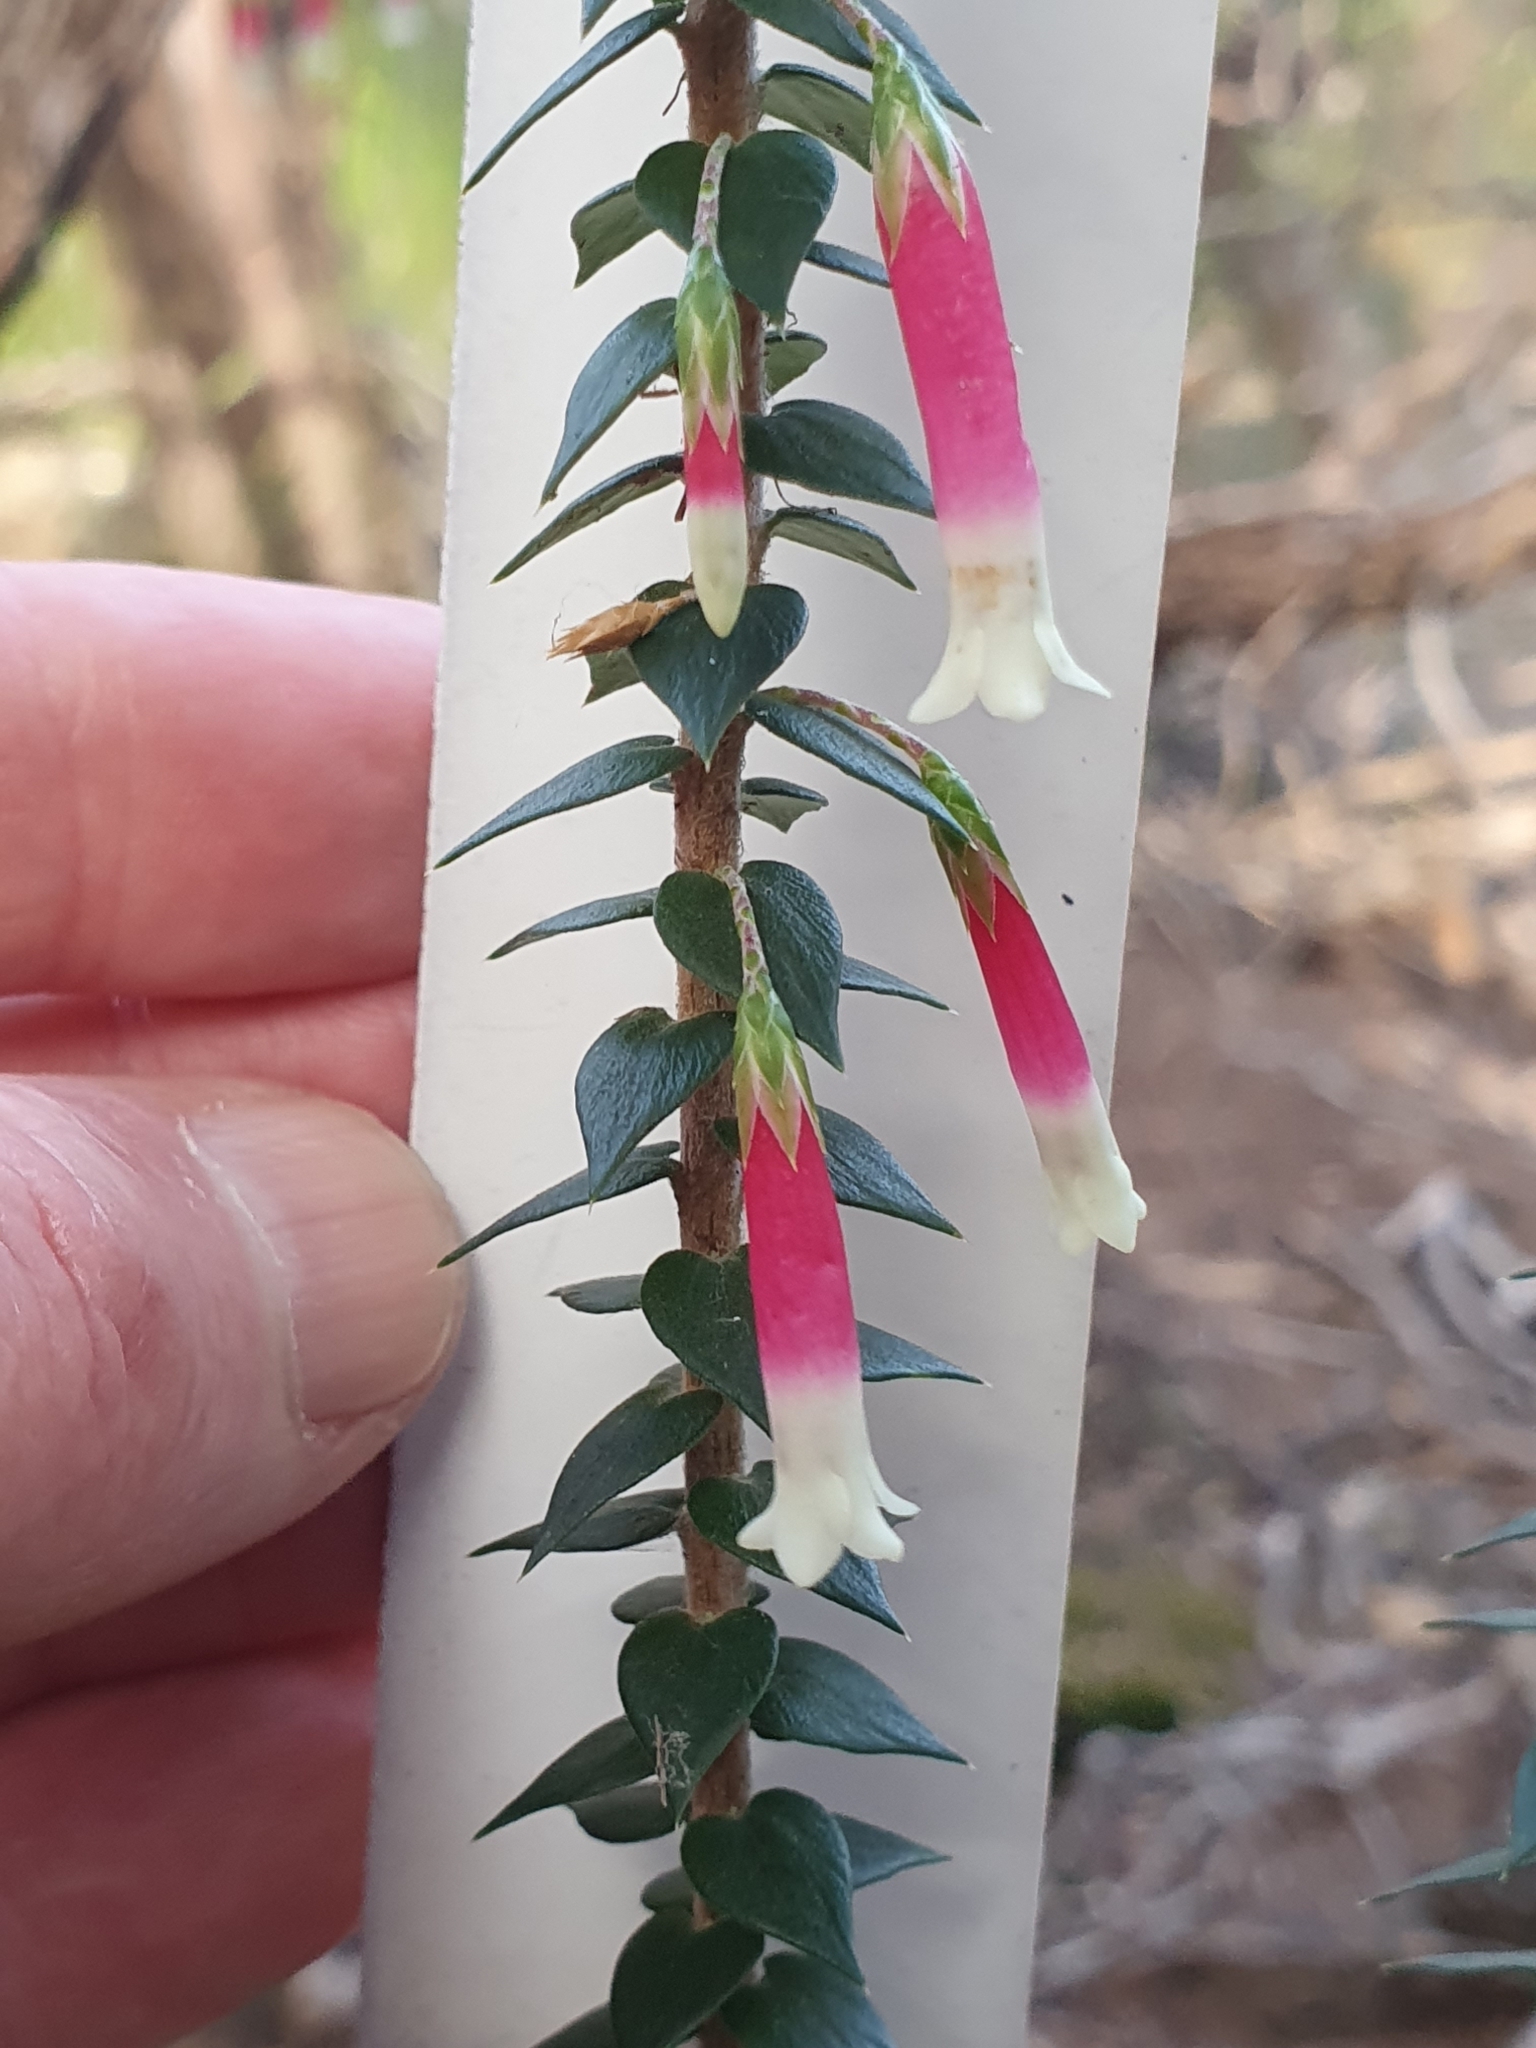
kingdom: Plantae
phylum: Tracheophyta
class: Magnoliopsida
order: Ericales
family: Ericaceae
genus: Epacris
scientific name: Epacris longiflora
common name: Fuchsia-heath
